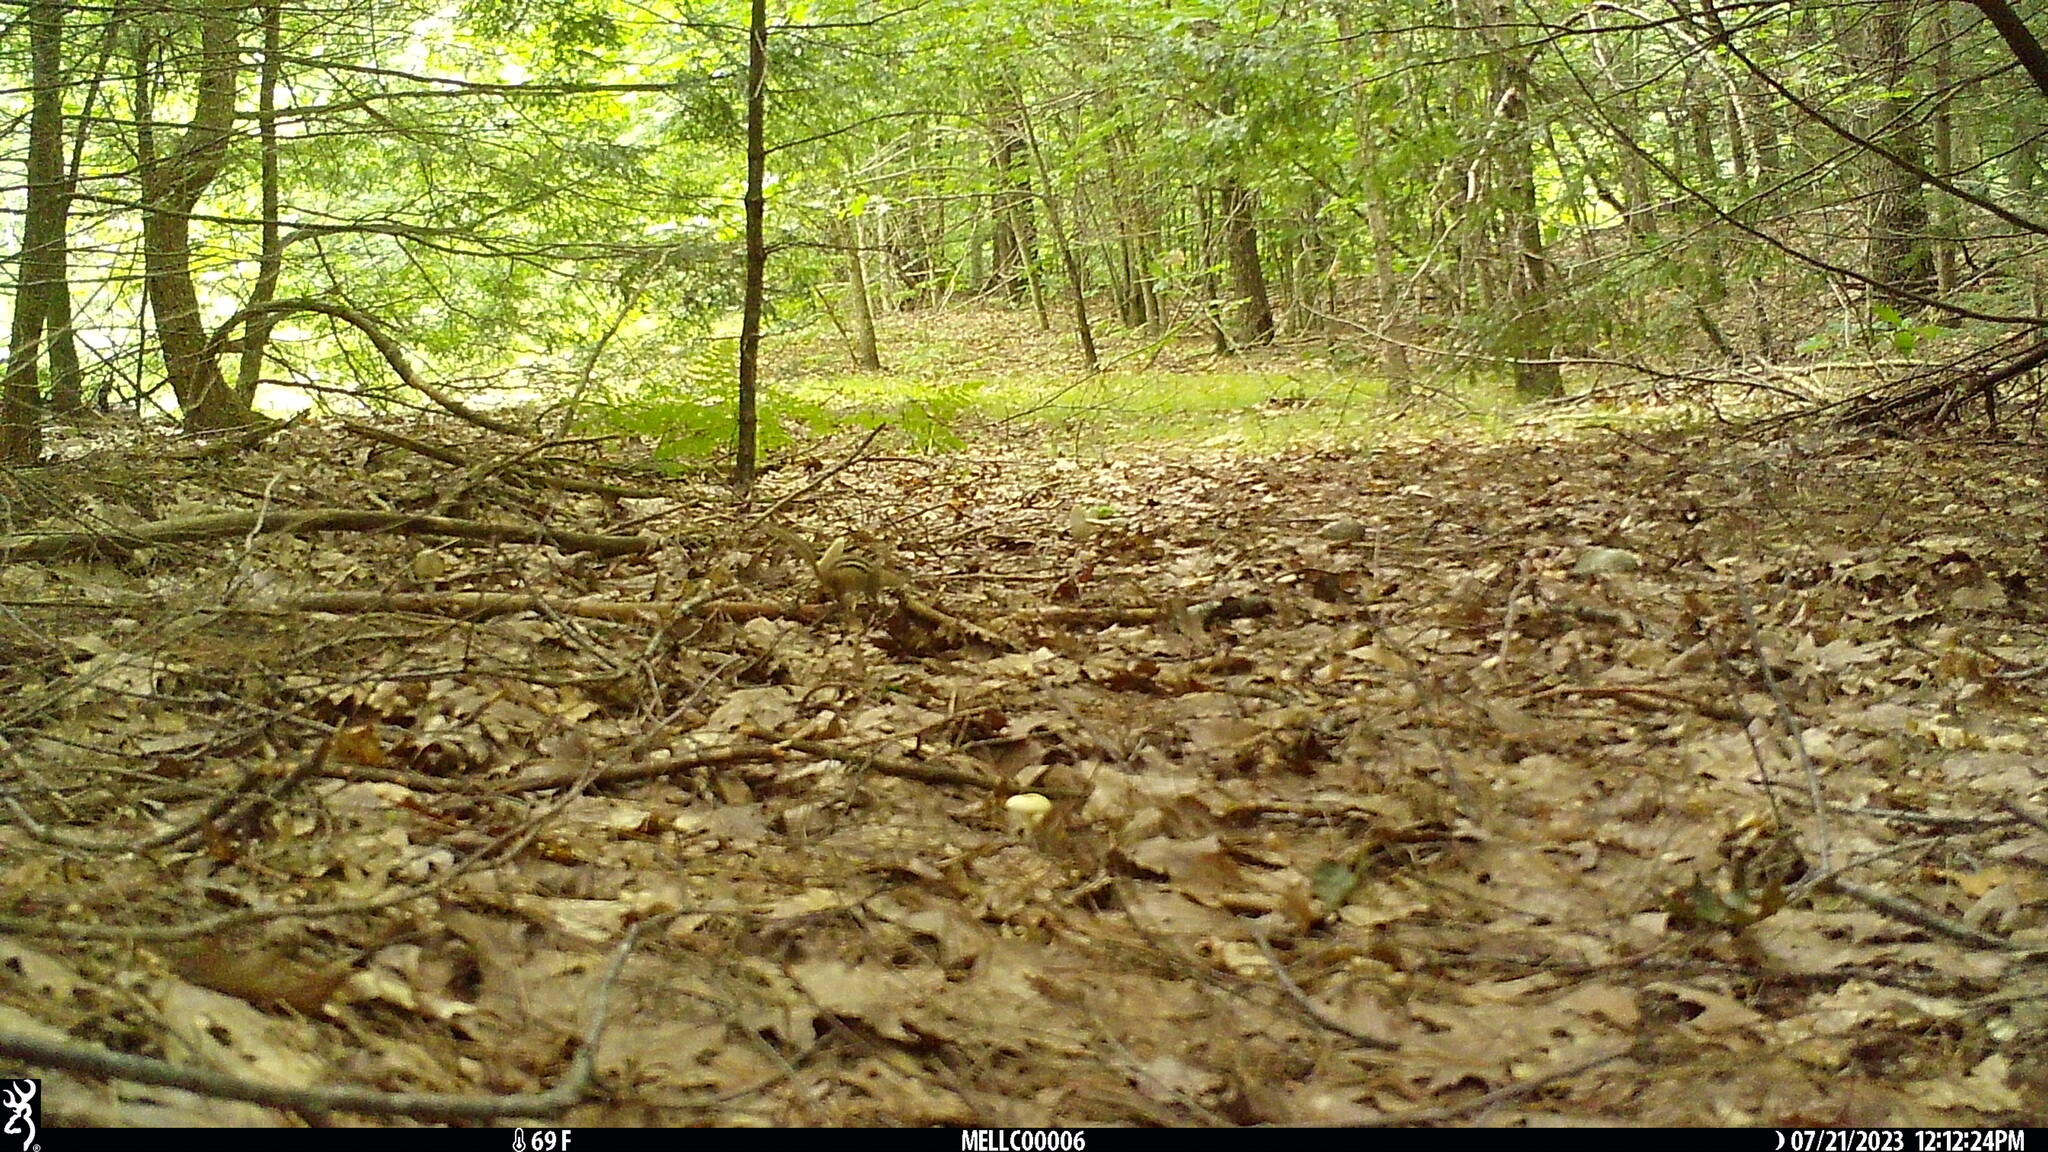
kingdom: Animalia
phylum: Chordata
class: Mammalia
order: Rodentia
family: Sciuridae
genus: Tamias
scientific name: Tamias striatus
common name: Eastern chipmunk
